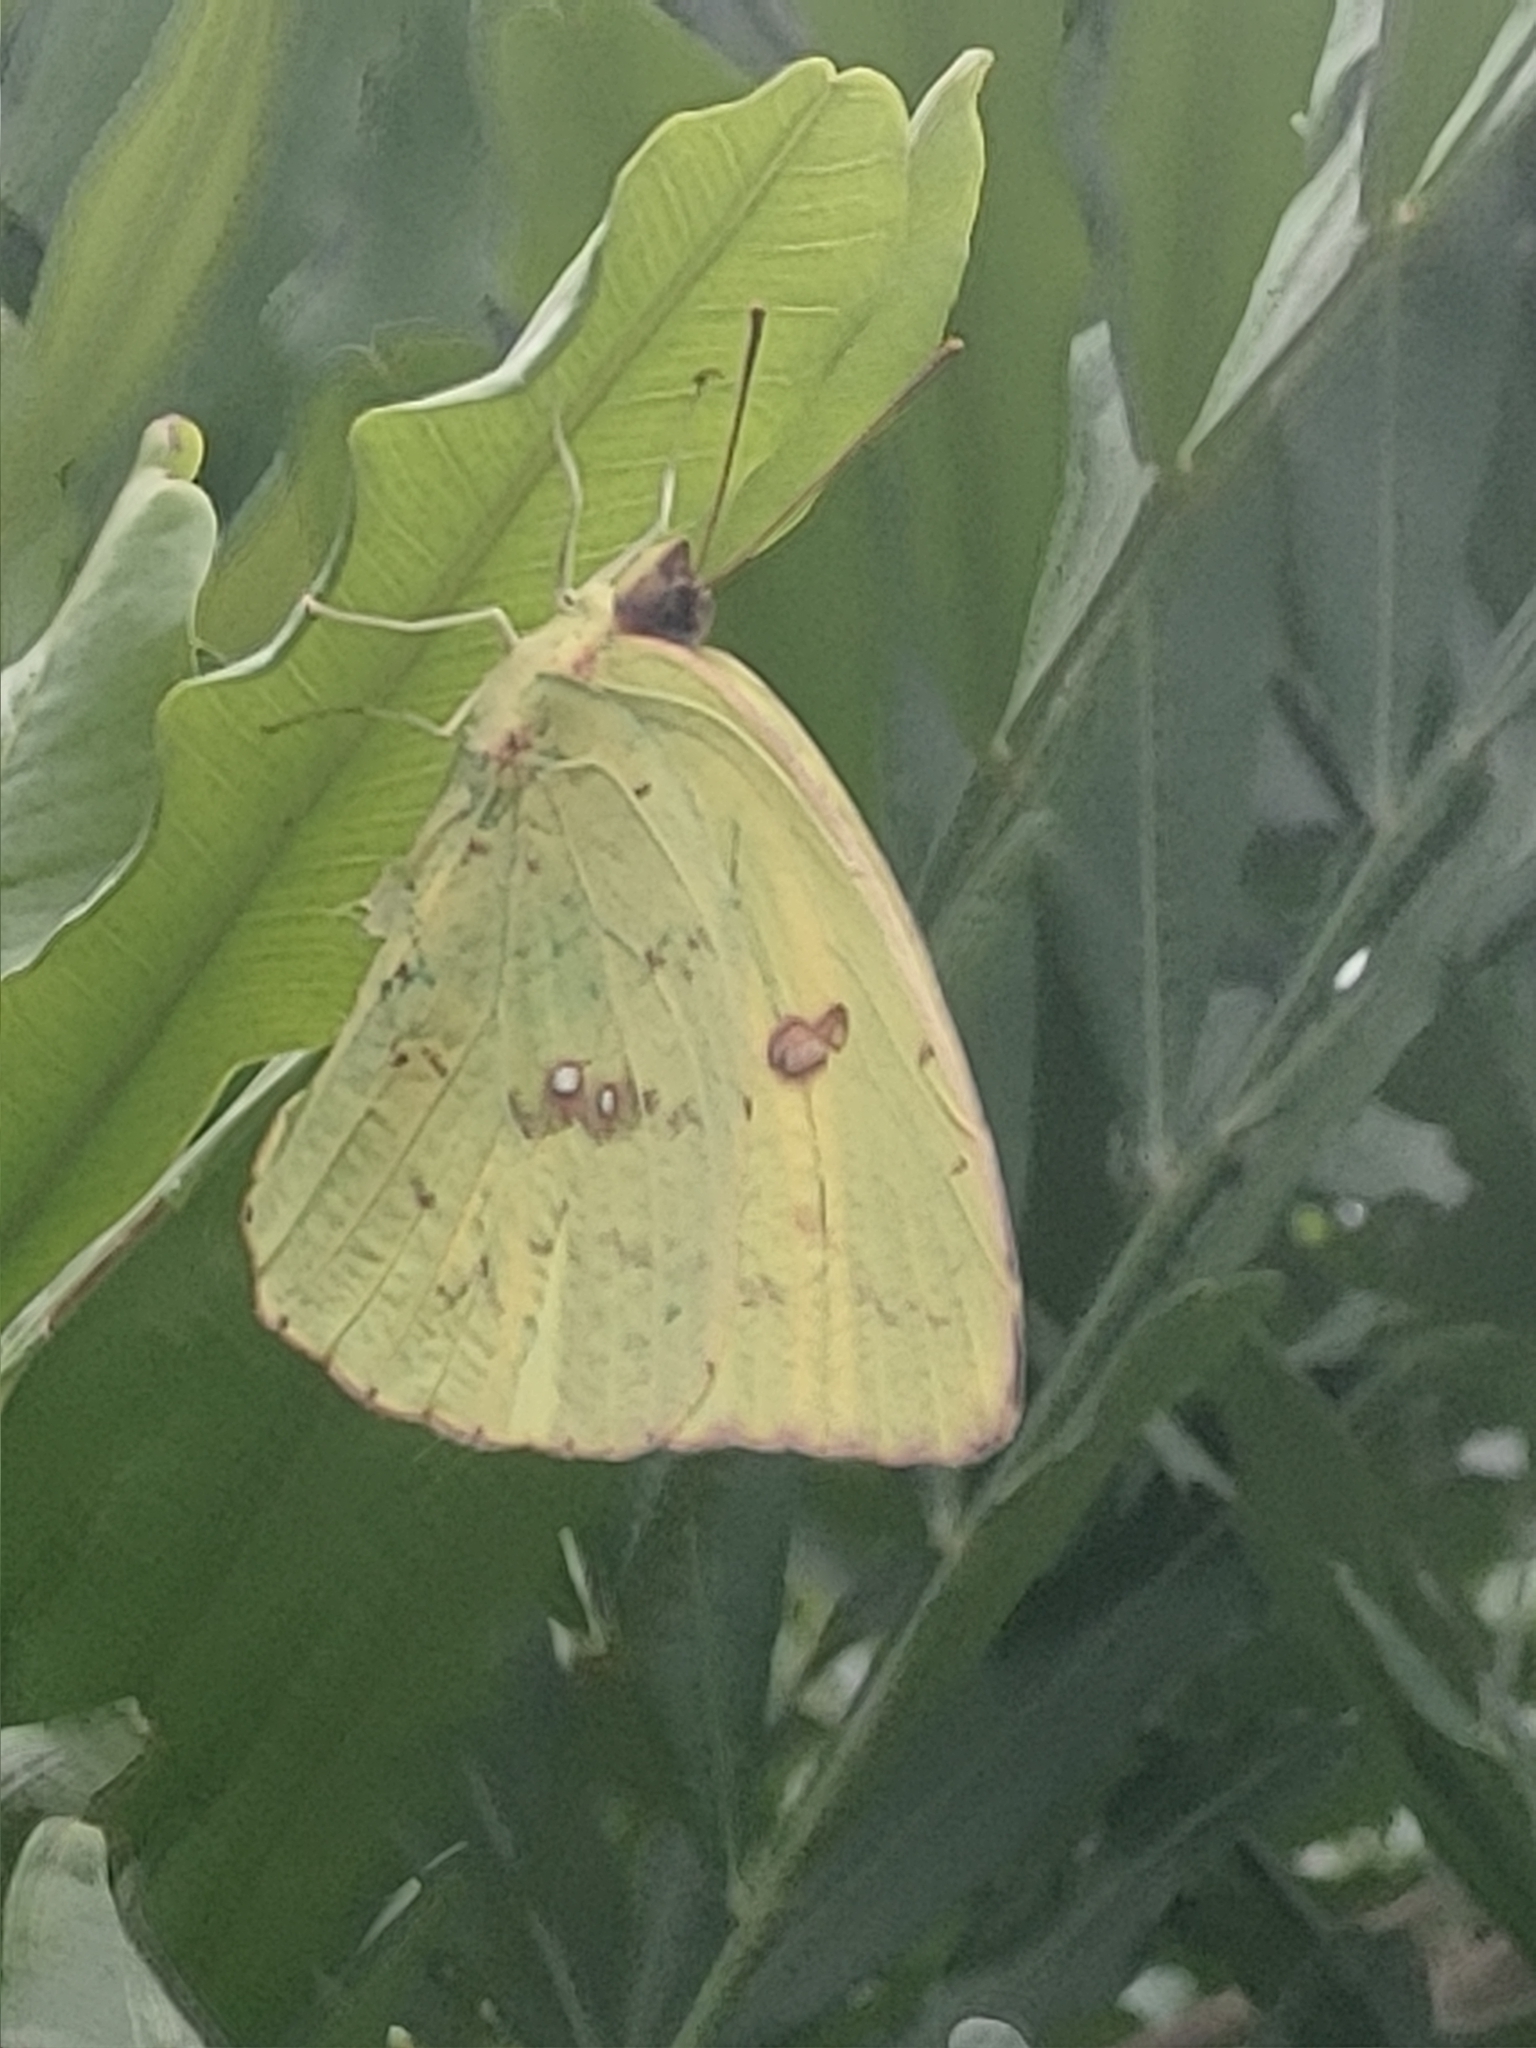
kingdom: Animalia
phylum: Arthropoda
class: Insecta
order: Lepidoptera
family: Pieridae
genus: Phoebis
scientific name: Phoebis sennae
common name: Cloudless sulphur
